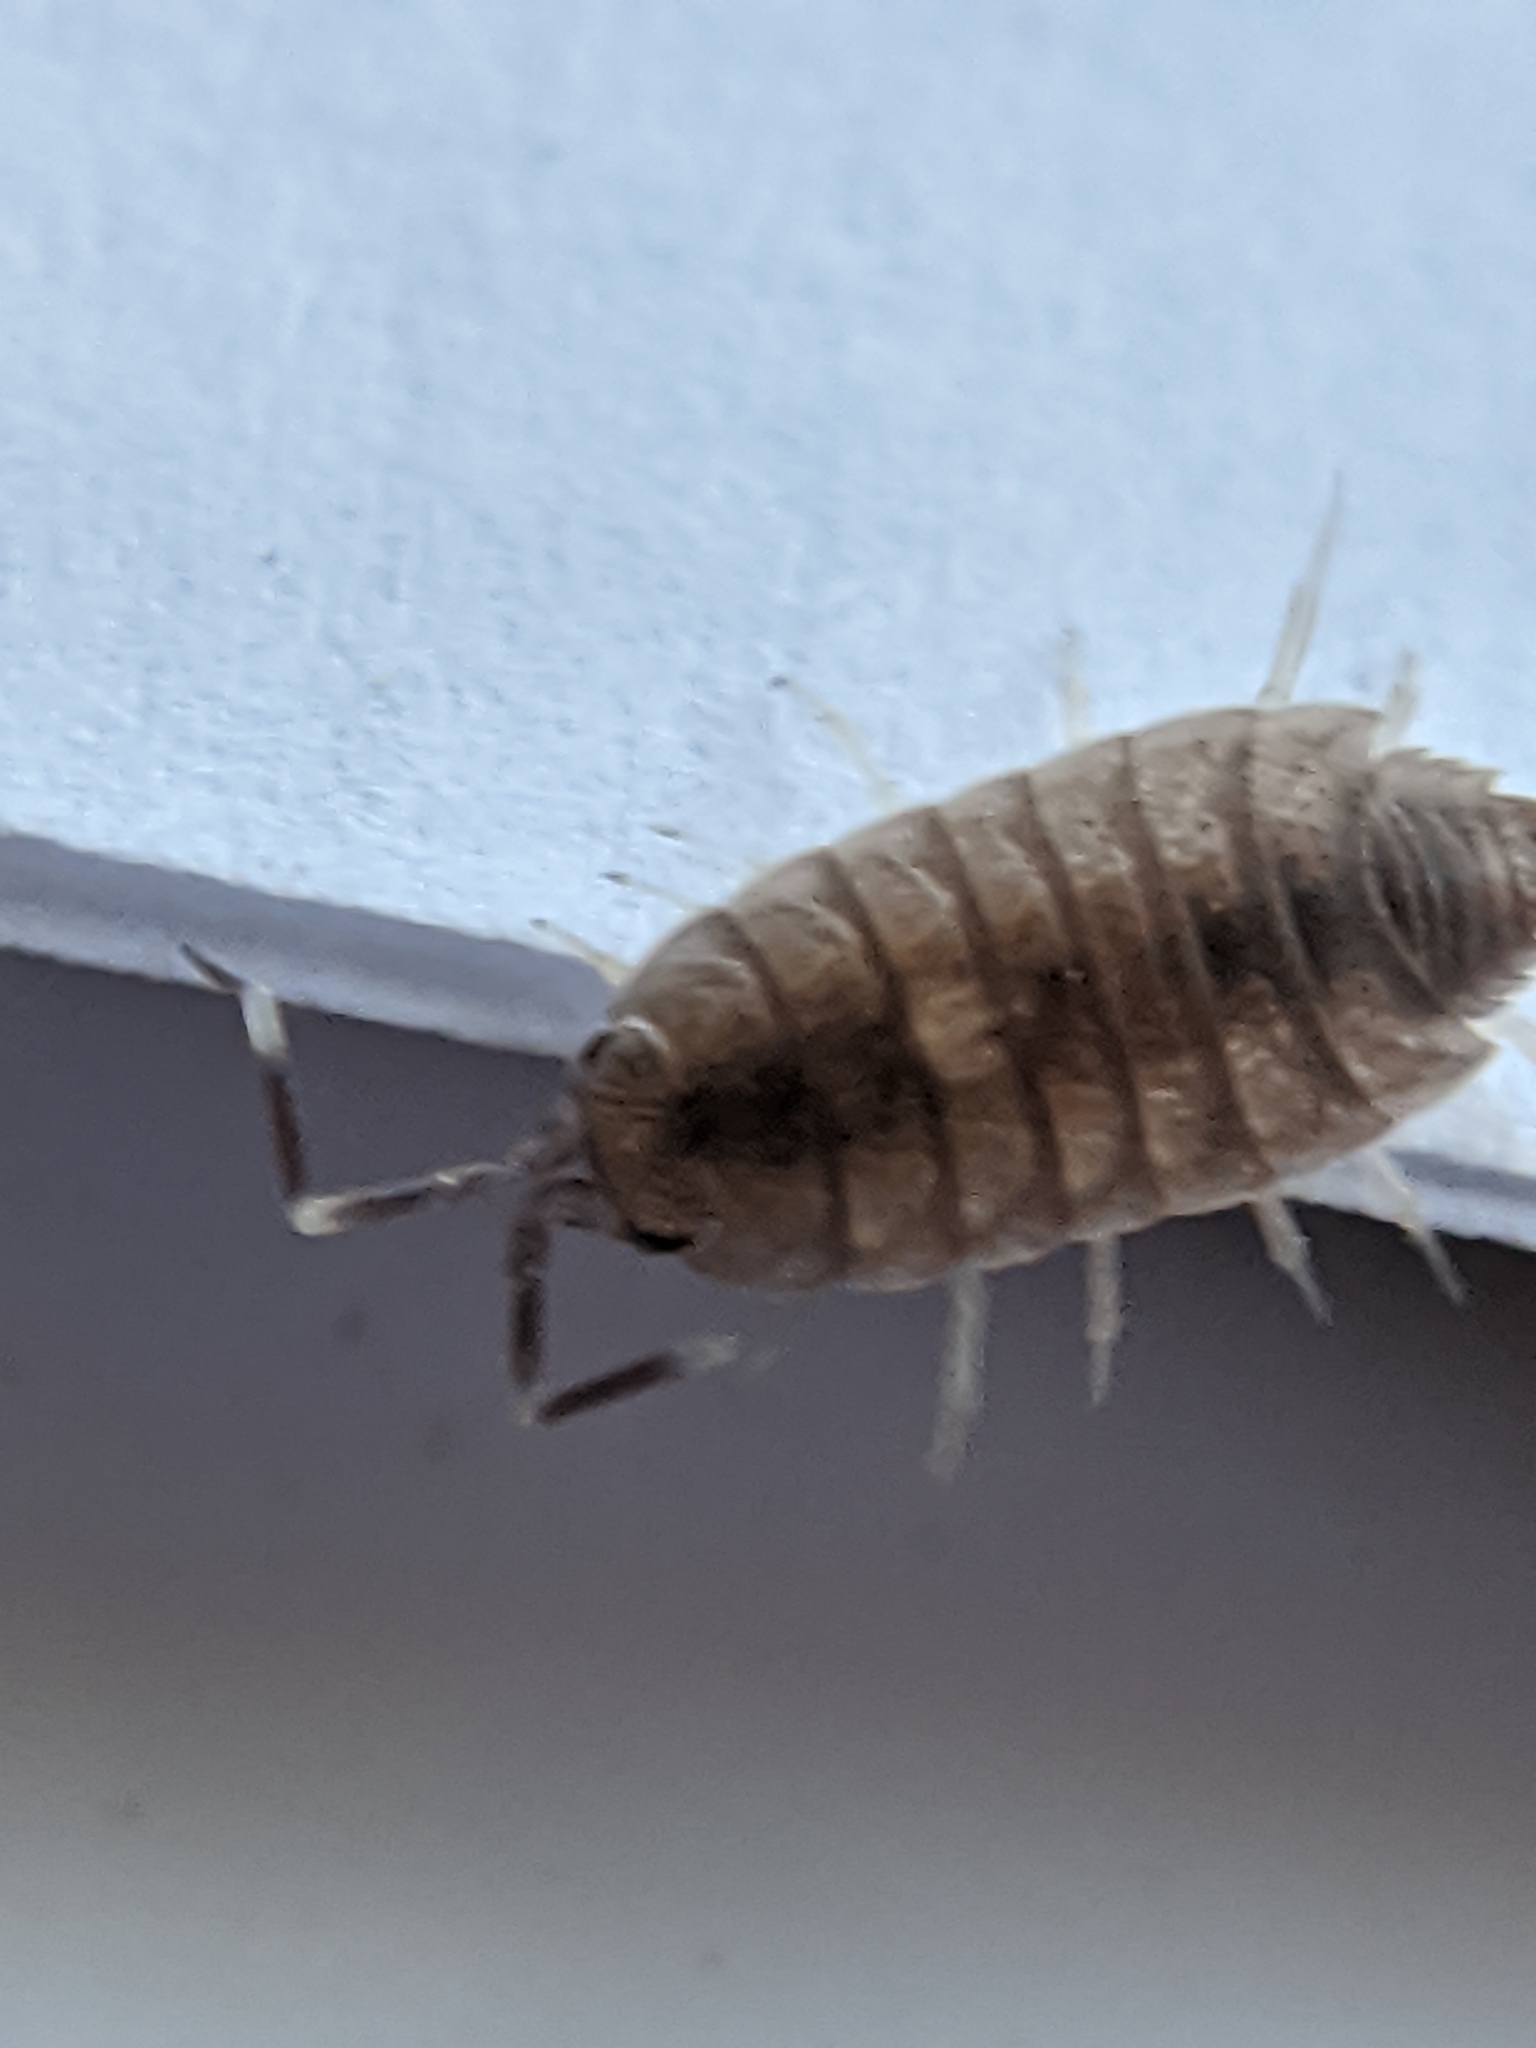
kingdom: Animalia
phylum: Arthropoda
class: Malacostraca
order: Isopoda
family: Porcellionidae
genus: Porcellionides
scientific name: Porcellionides pruinosus
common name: Plum woodlouse
